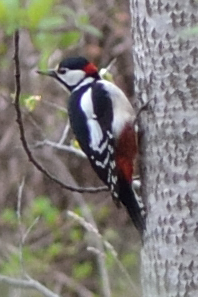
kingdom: Animalia
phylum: Chordata
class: Aves
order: Piciformes
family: Picidae
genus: Dendrocopos
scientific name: Dendrocopos major
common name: Great spotted woodpecker
